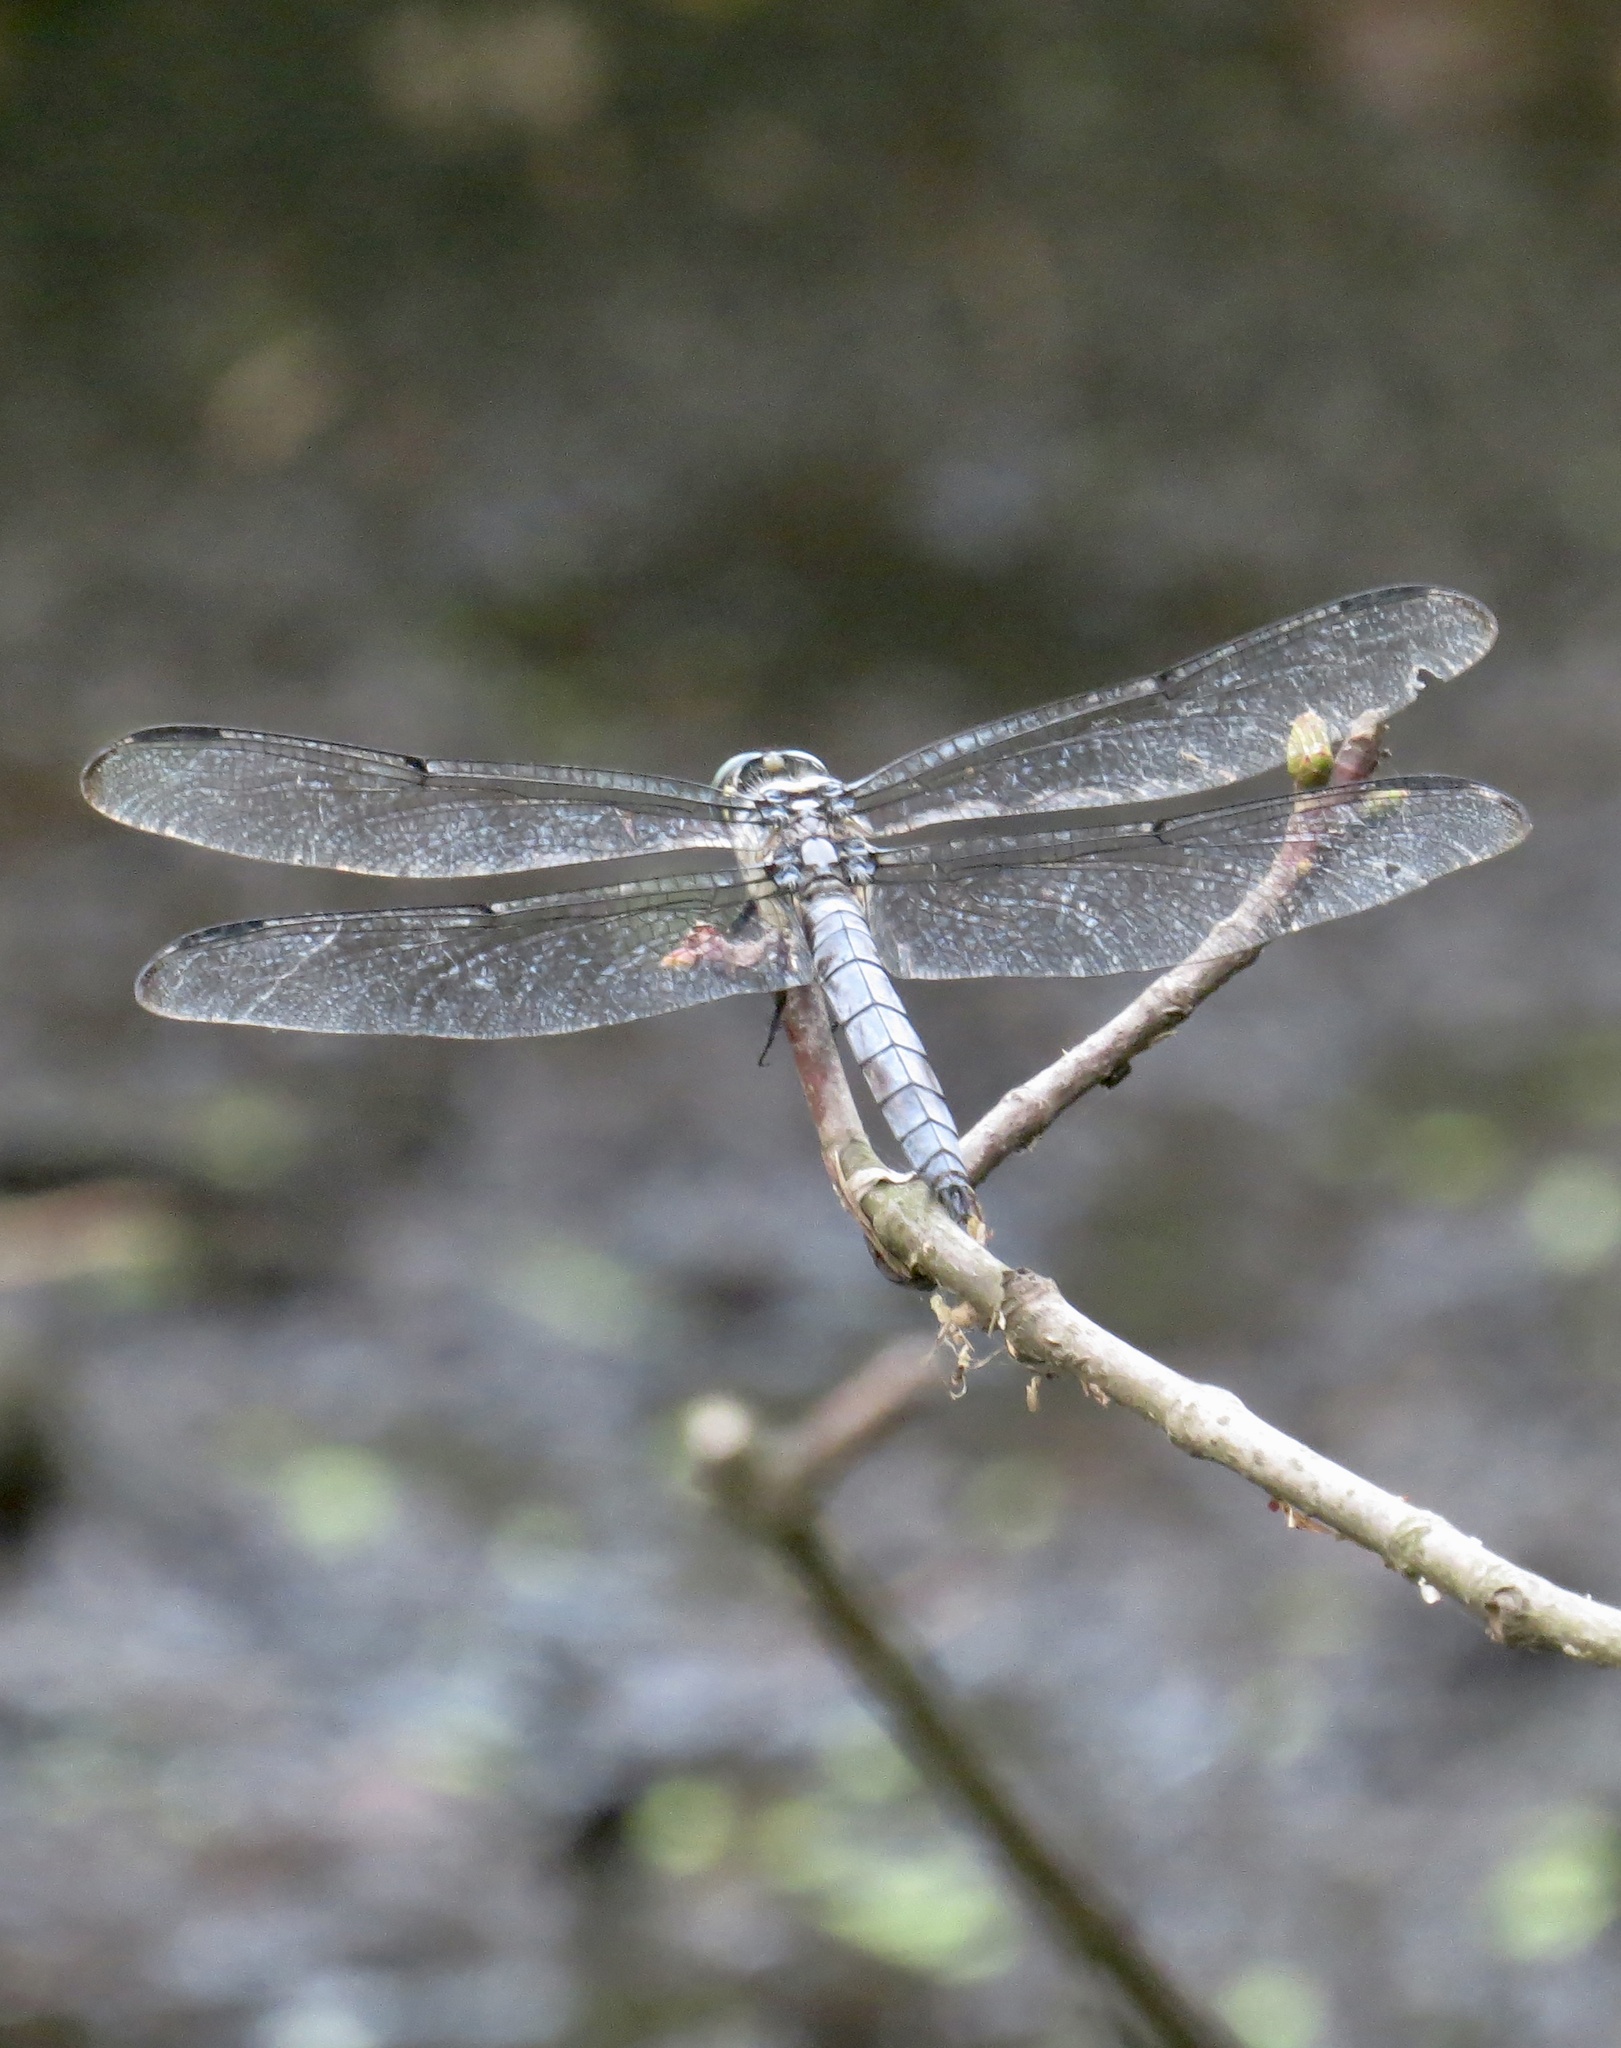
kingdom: Animalia
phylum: Arthropoda
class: Insecta
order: Odonata
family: Libellulidae
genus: Libellula
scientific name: Libellula vibrans
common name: Great blue skimmer
